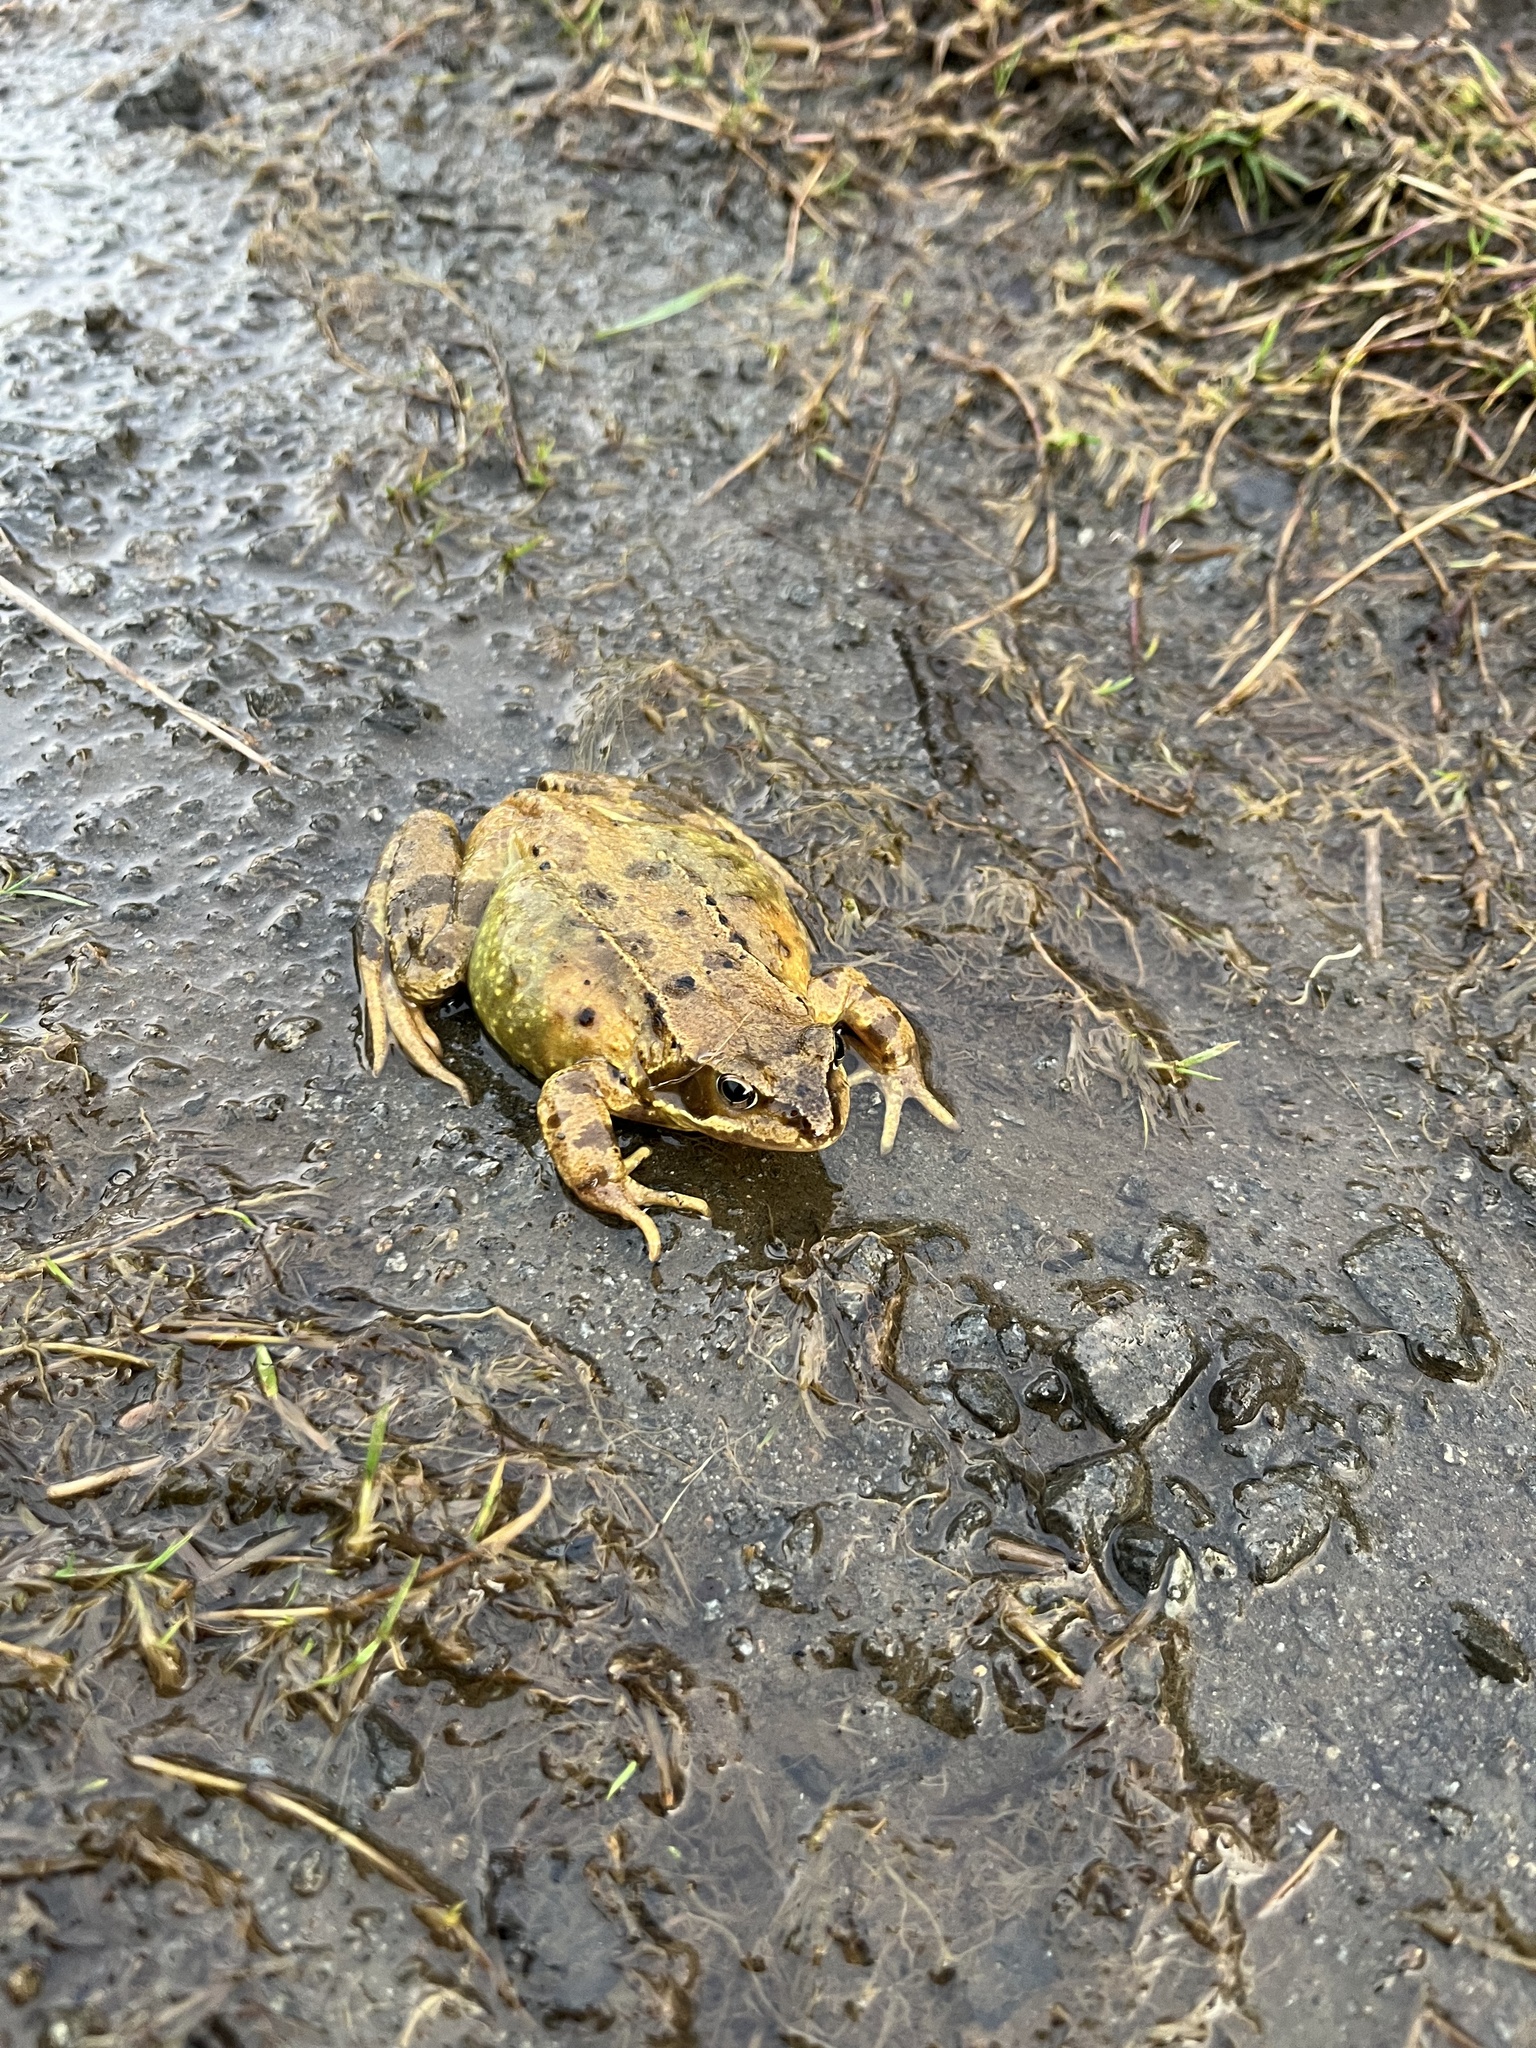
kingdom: Animalia
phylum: Chordata
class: Amphibia
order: Anura
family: Ranidae
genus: Rana
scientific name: Rana temporaria
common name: Common frog
